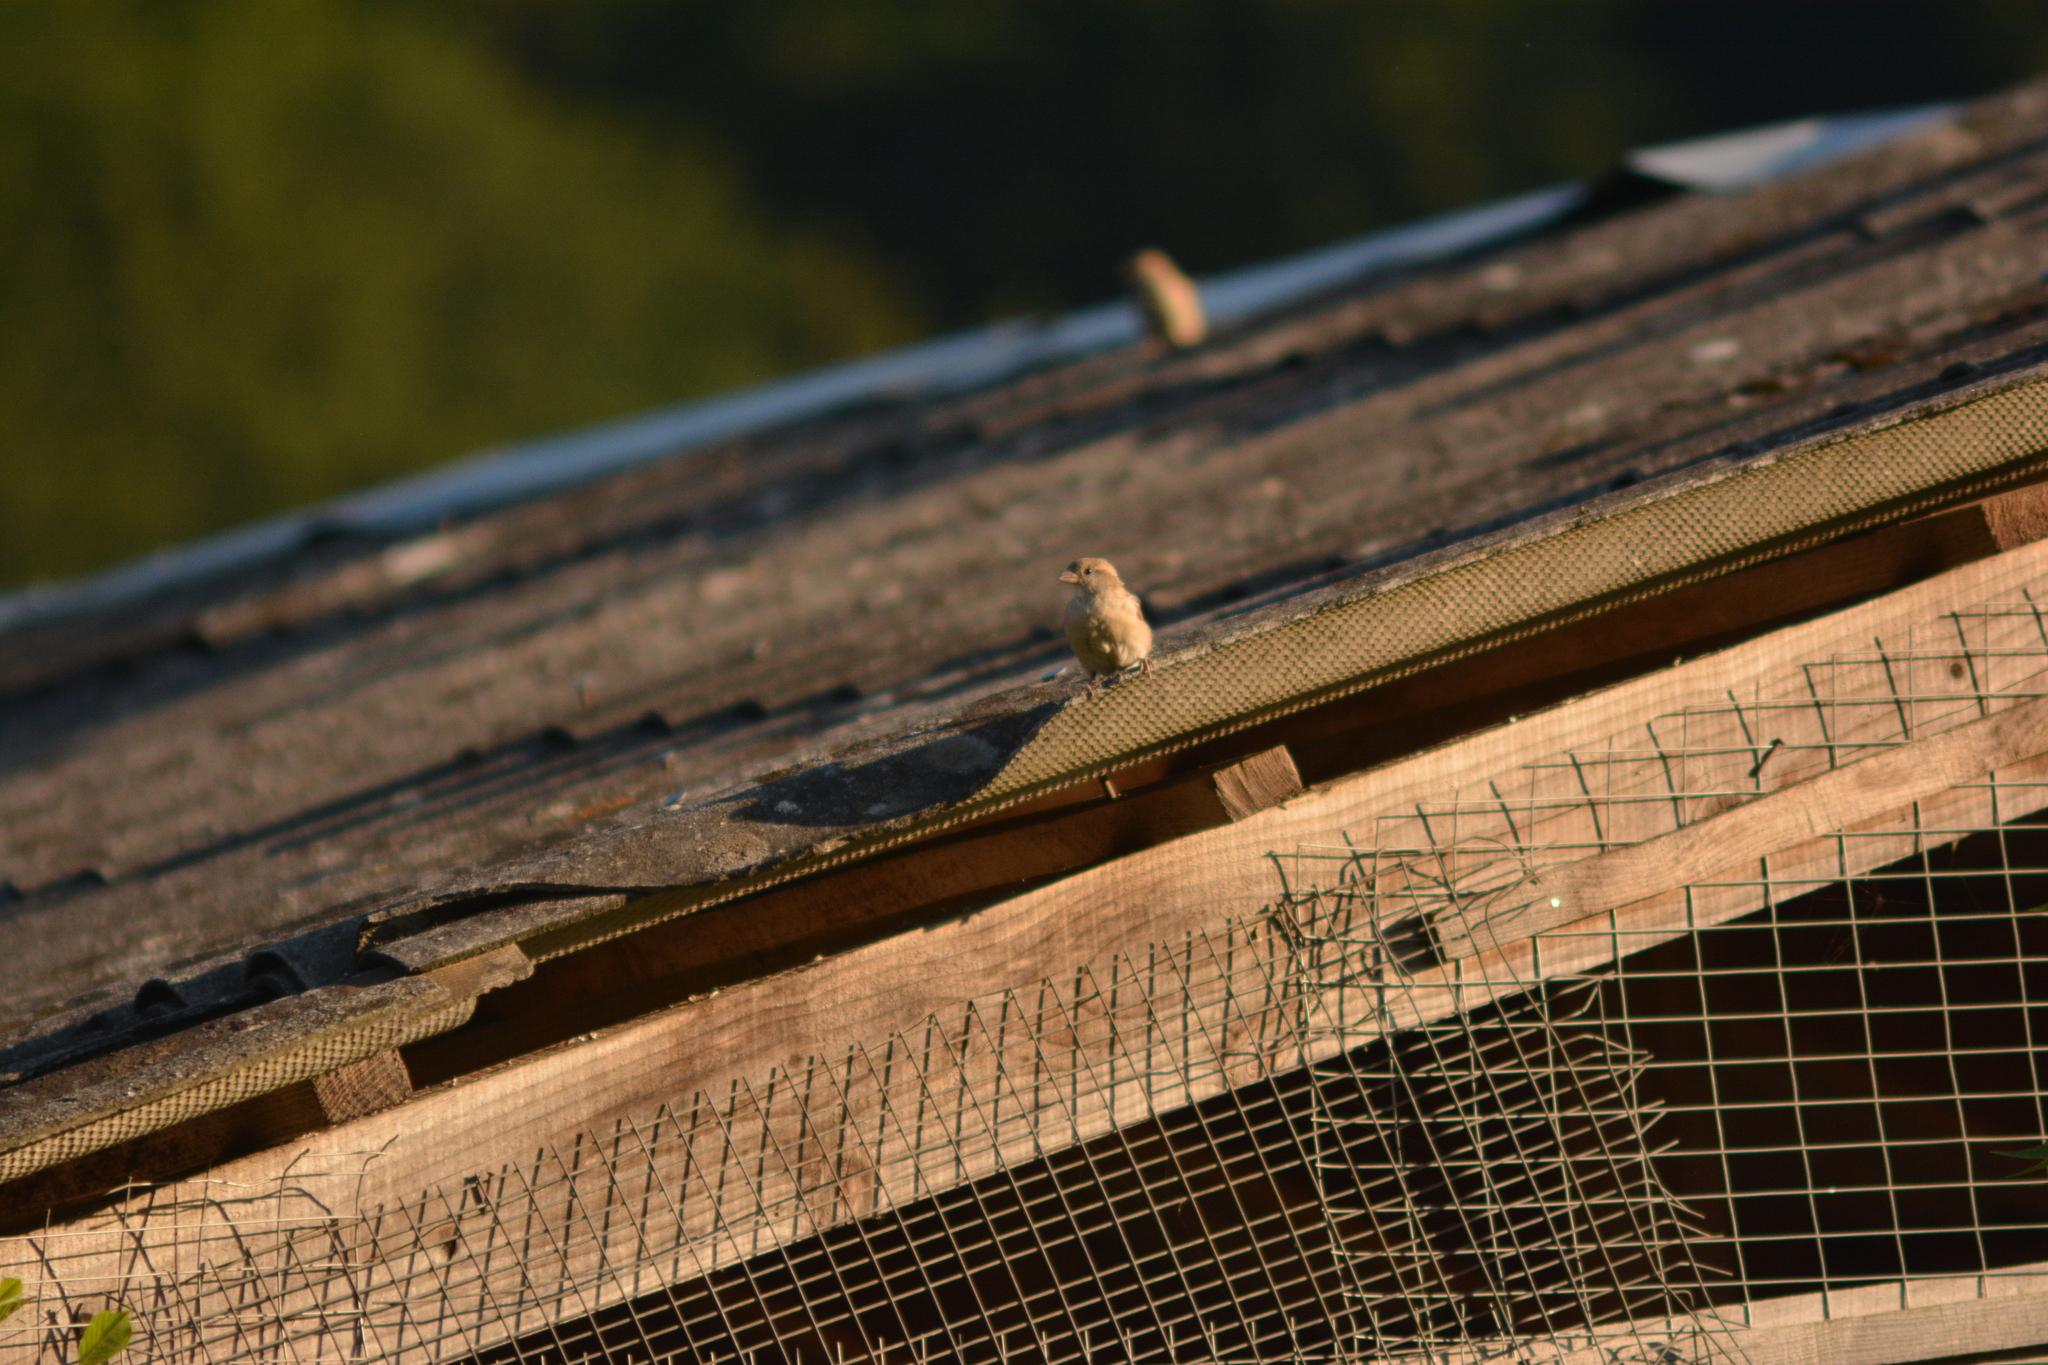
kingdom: Animalia
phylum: Chordata
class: Aves
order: Passeriformes
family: Passeridae
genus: Passer
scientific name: Passer domesticus
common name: House sparrow
